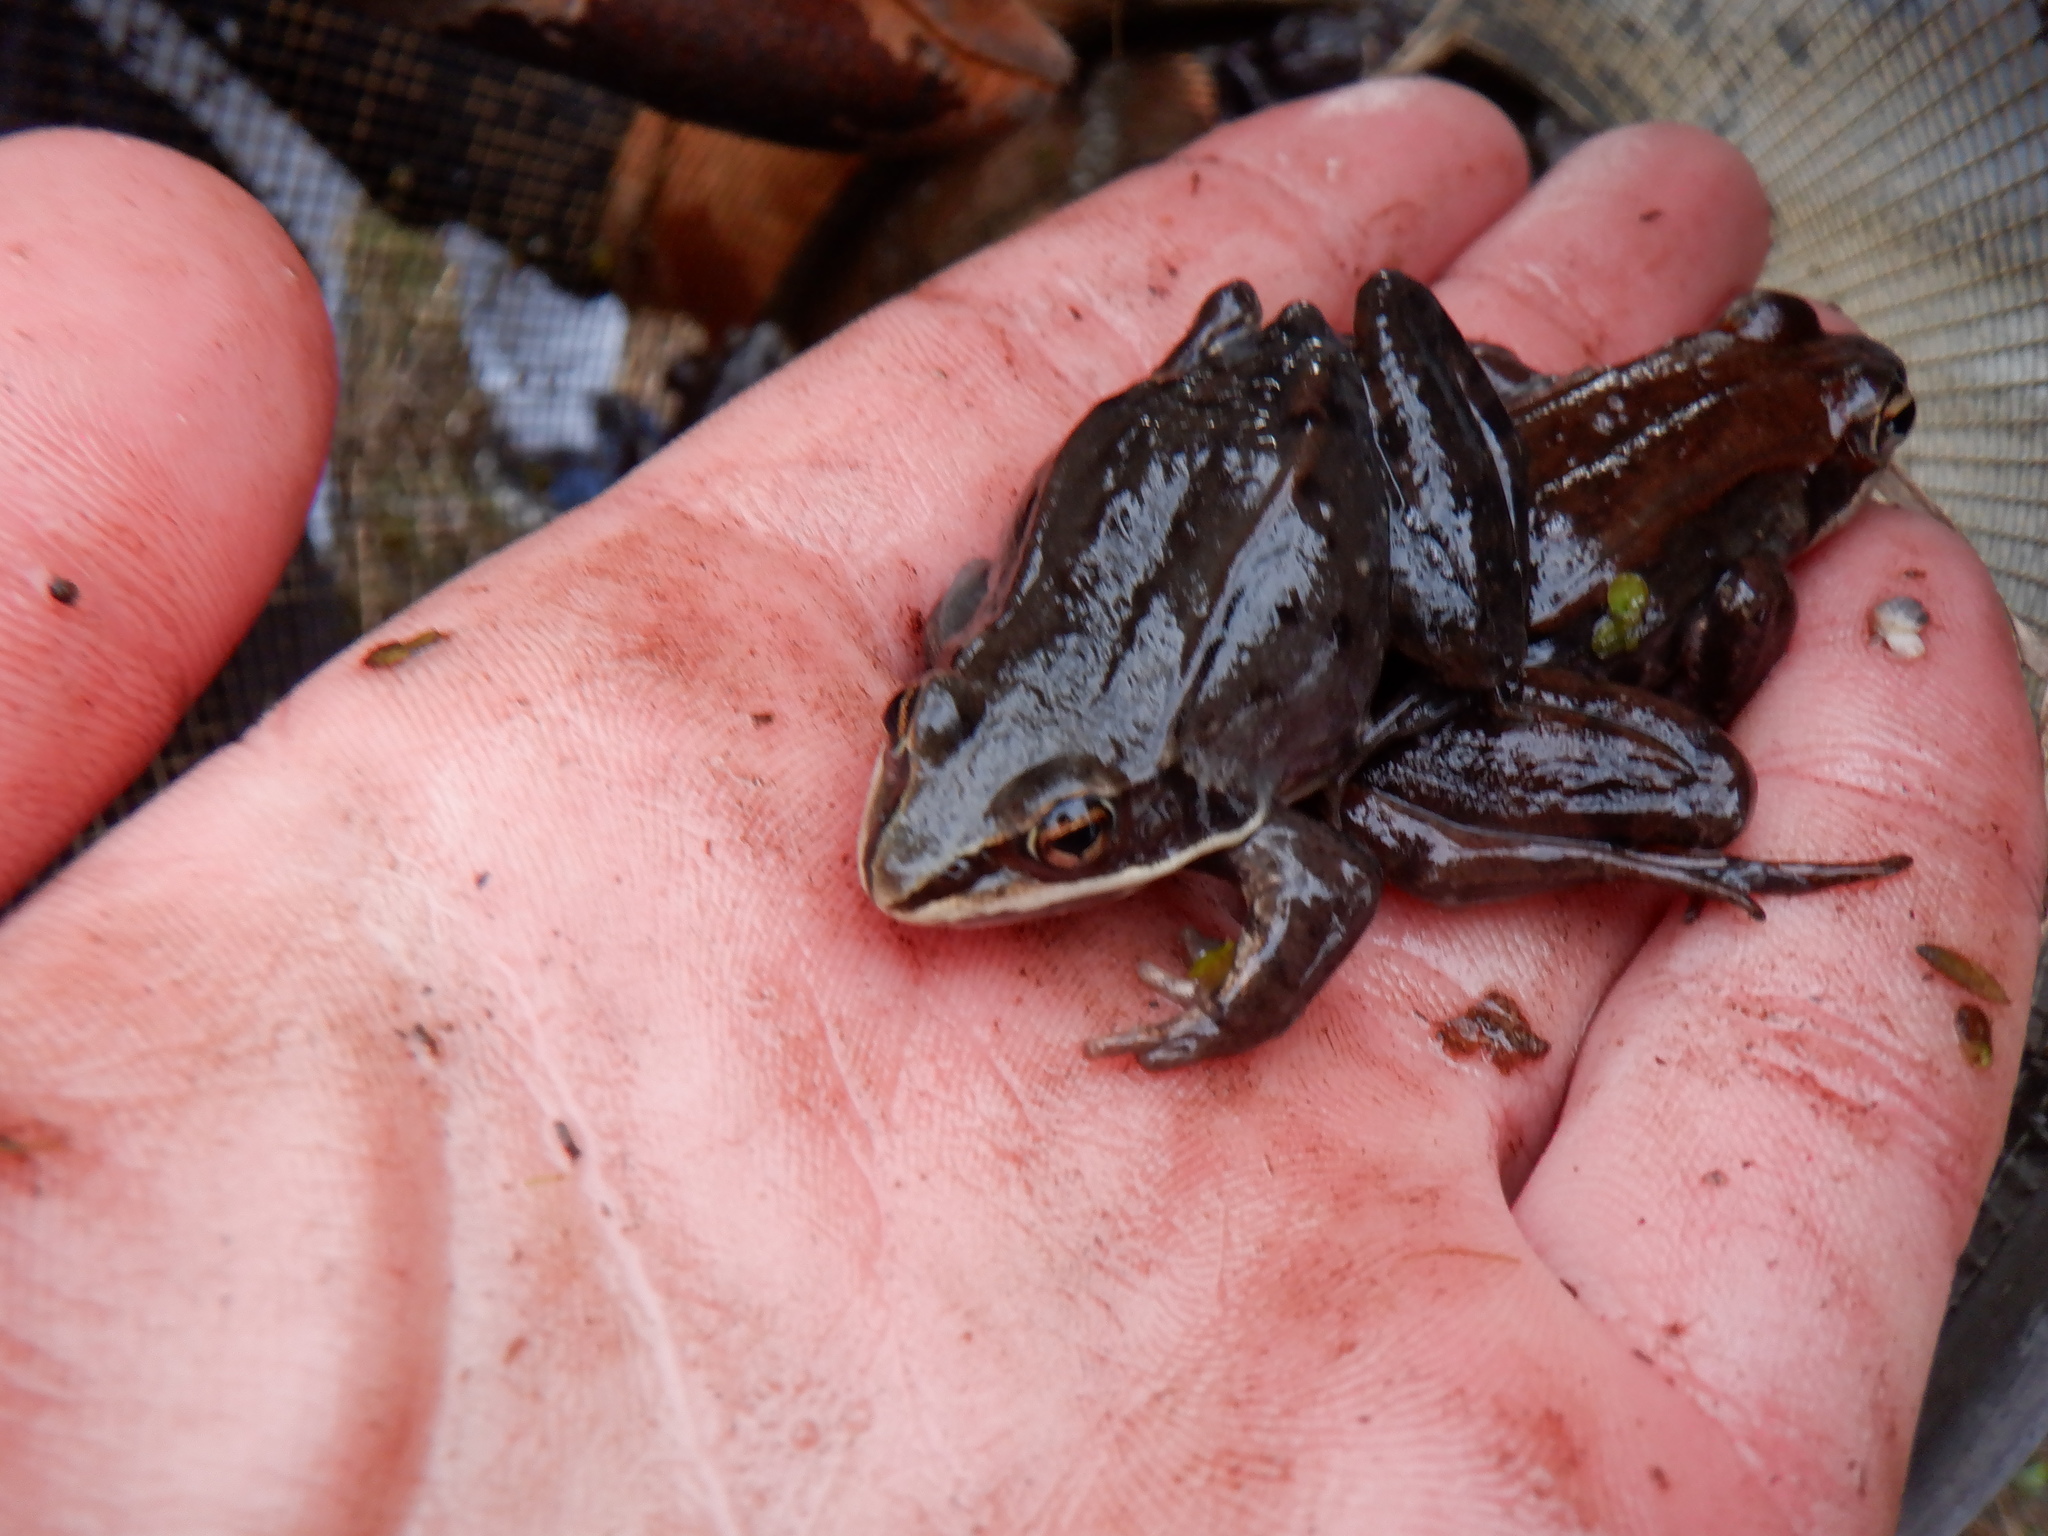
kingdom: Animalia
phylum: Chordata
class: Amphibia
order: Anura
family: Ranidae
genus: Lithobates
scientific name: Lithobates sylvaticus
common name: Wood frog
